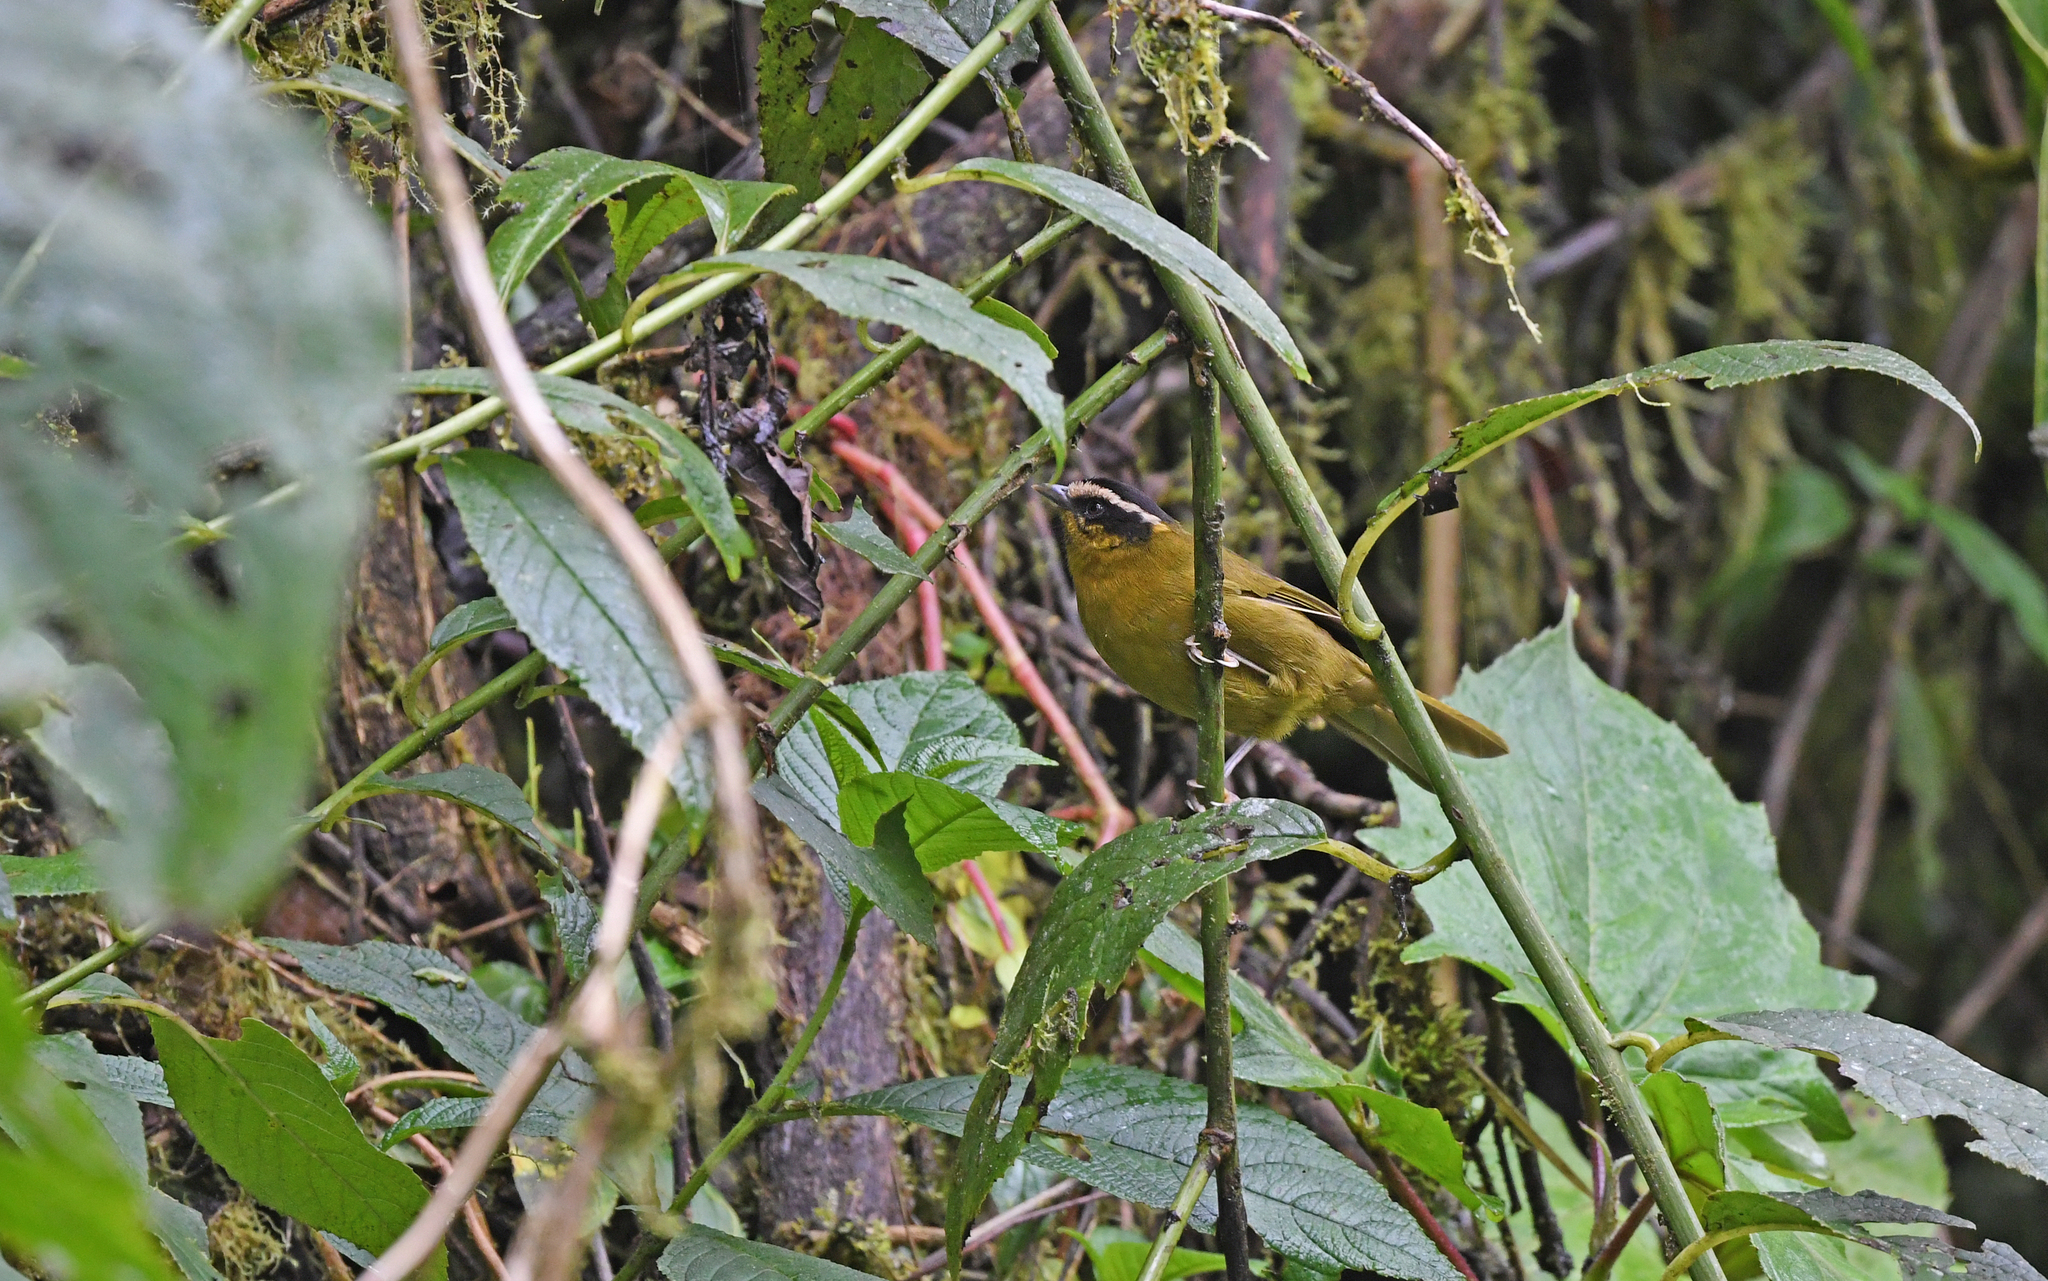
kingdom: Animalia
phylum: Chordata
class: Aves
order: Passeriformes
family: Thraupidae
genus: Kleinothraupis
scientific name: Kleinothraupis atropileus
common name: Black-capped hemispingus
